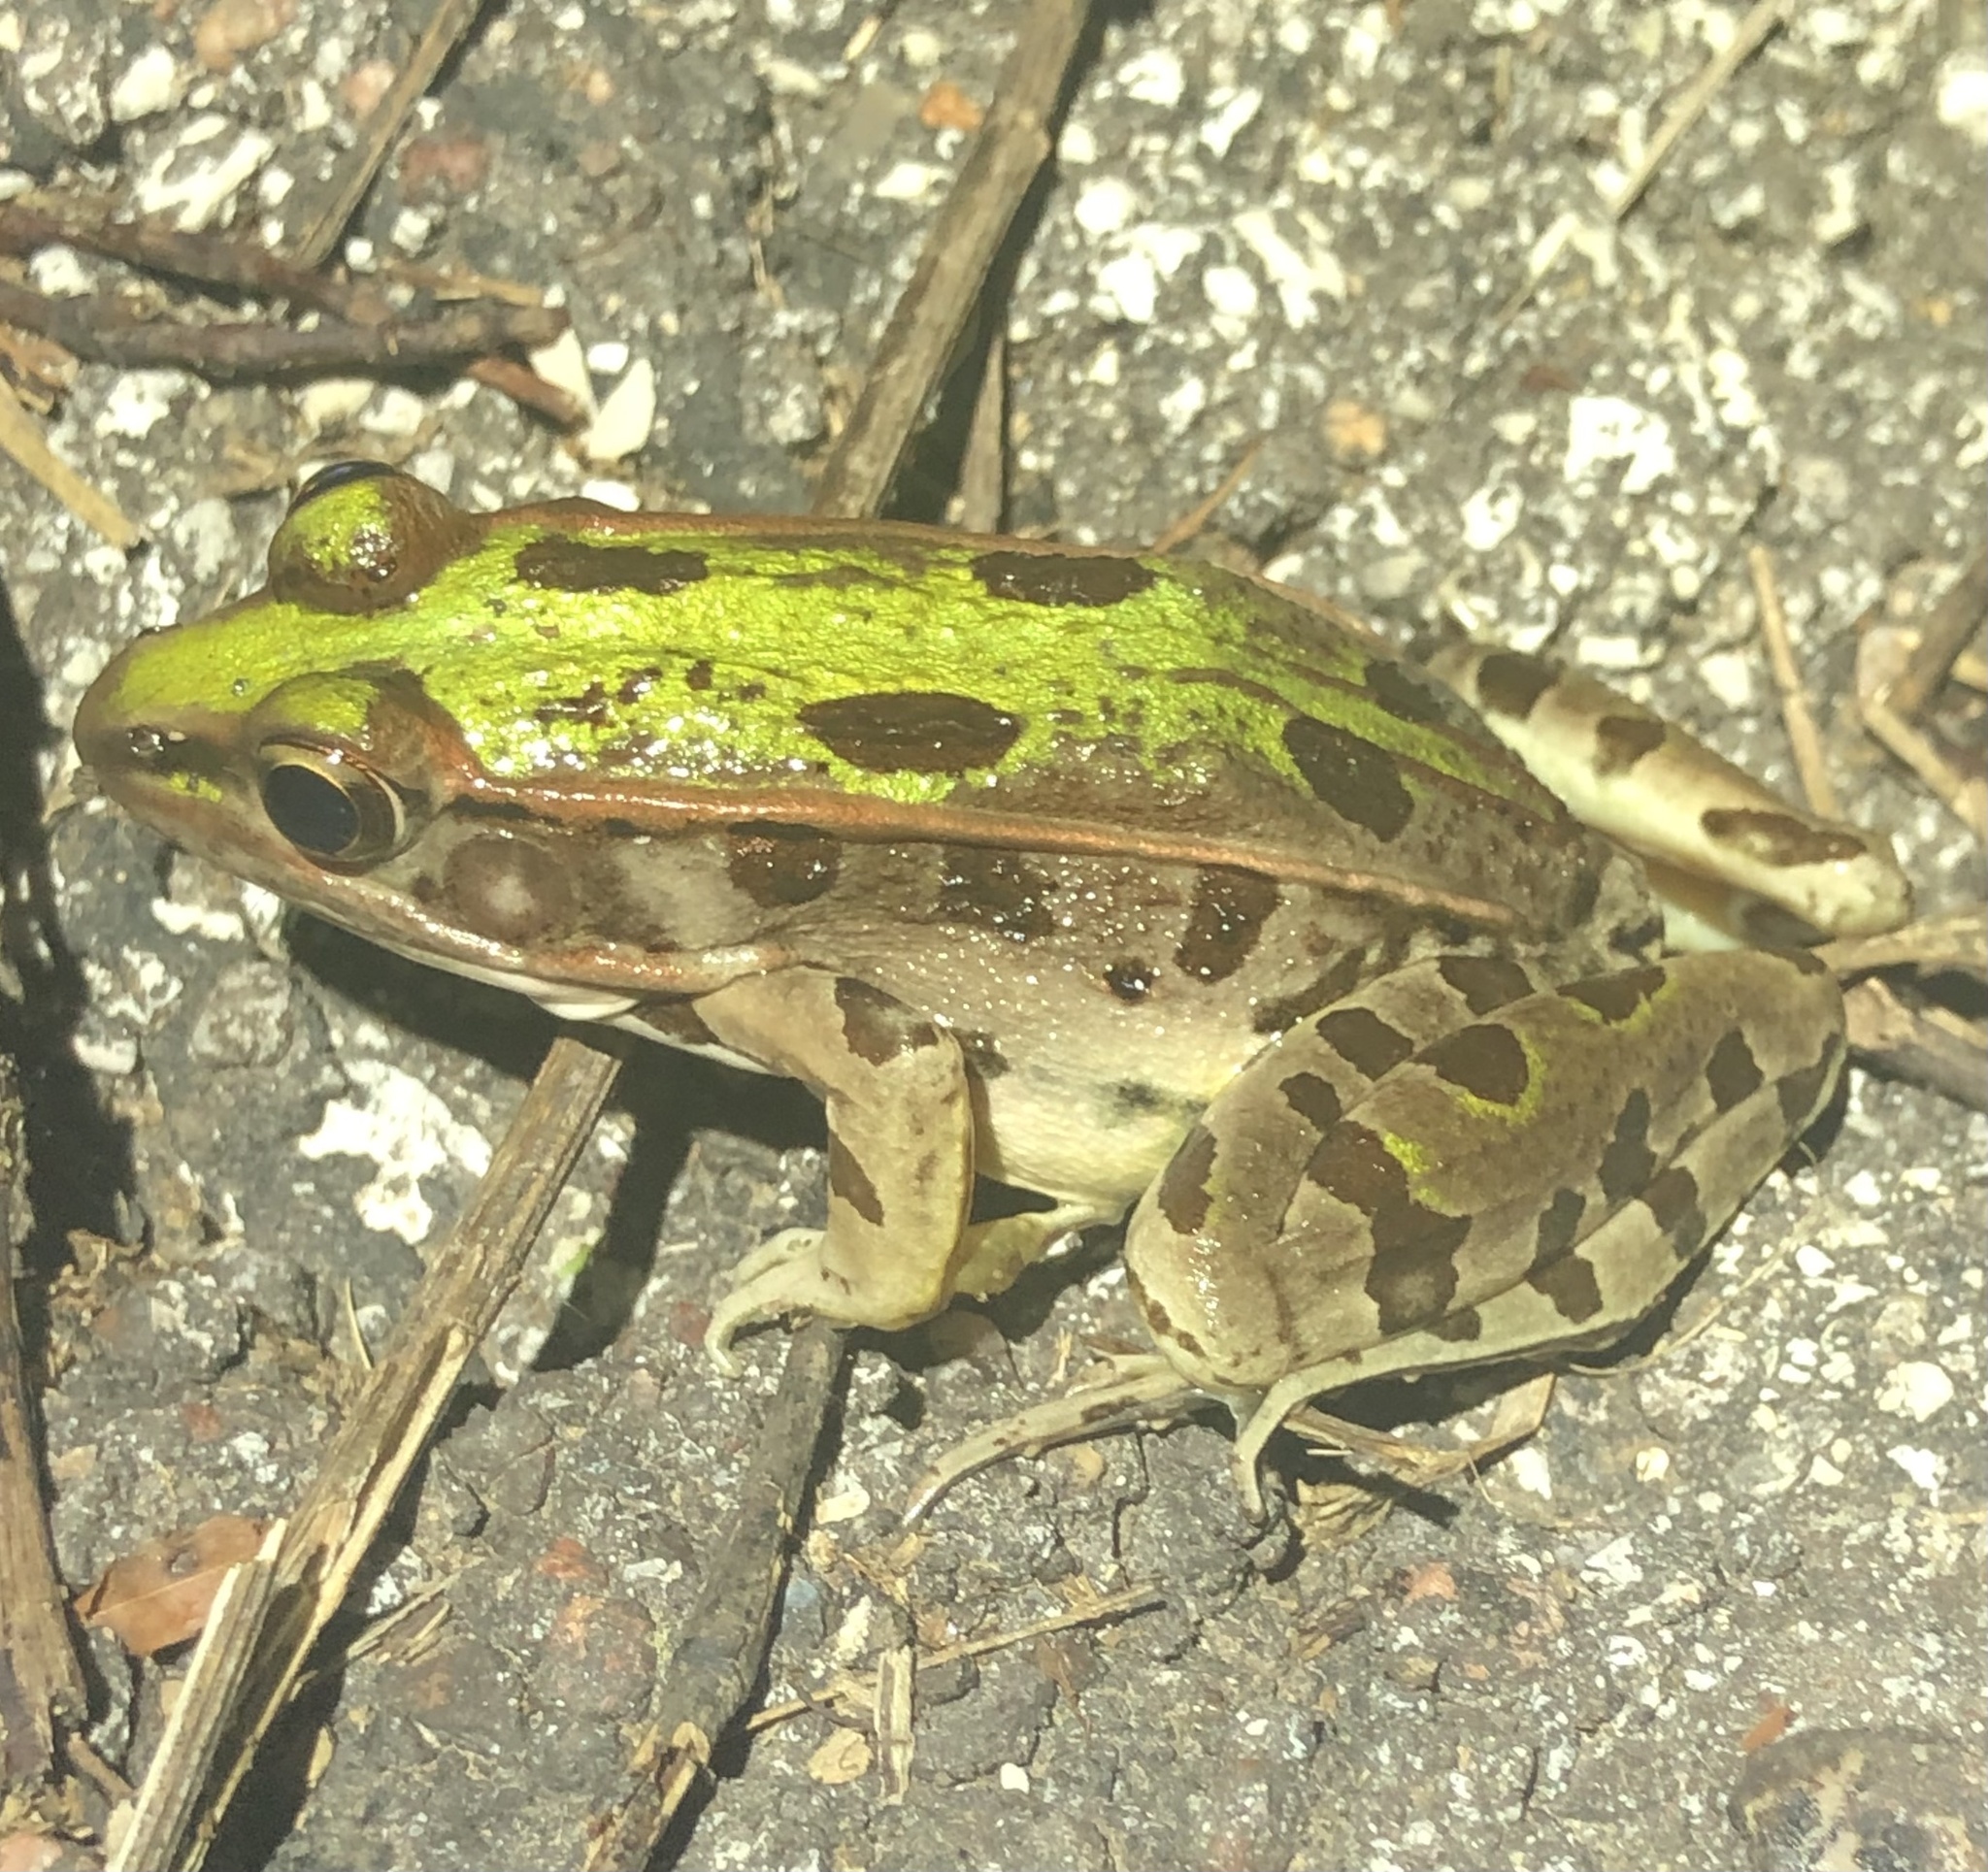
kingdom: Animalia
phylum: Chordata
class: Amphibia
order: Anura
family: Ranidae
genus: Lithobates
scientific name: Lithobates sphenocephalus
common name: Southern leopard frog
